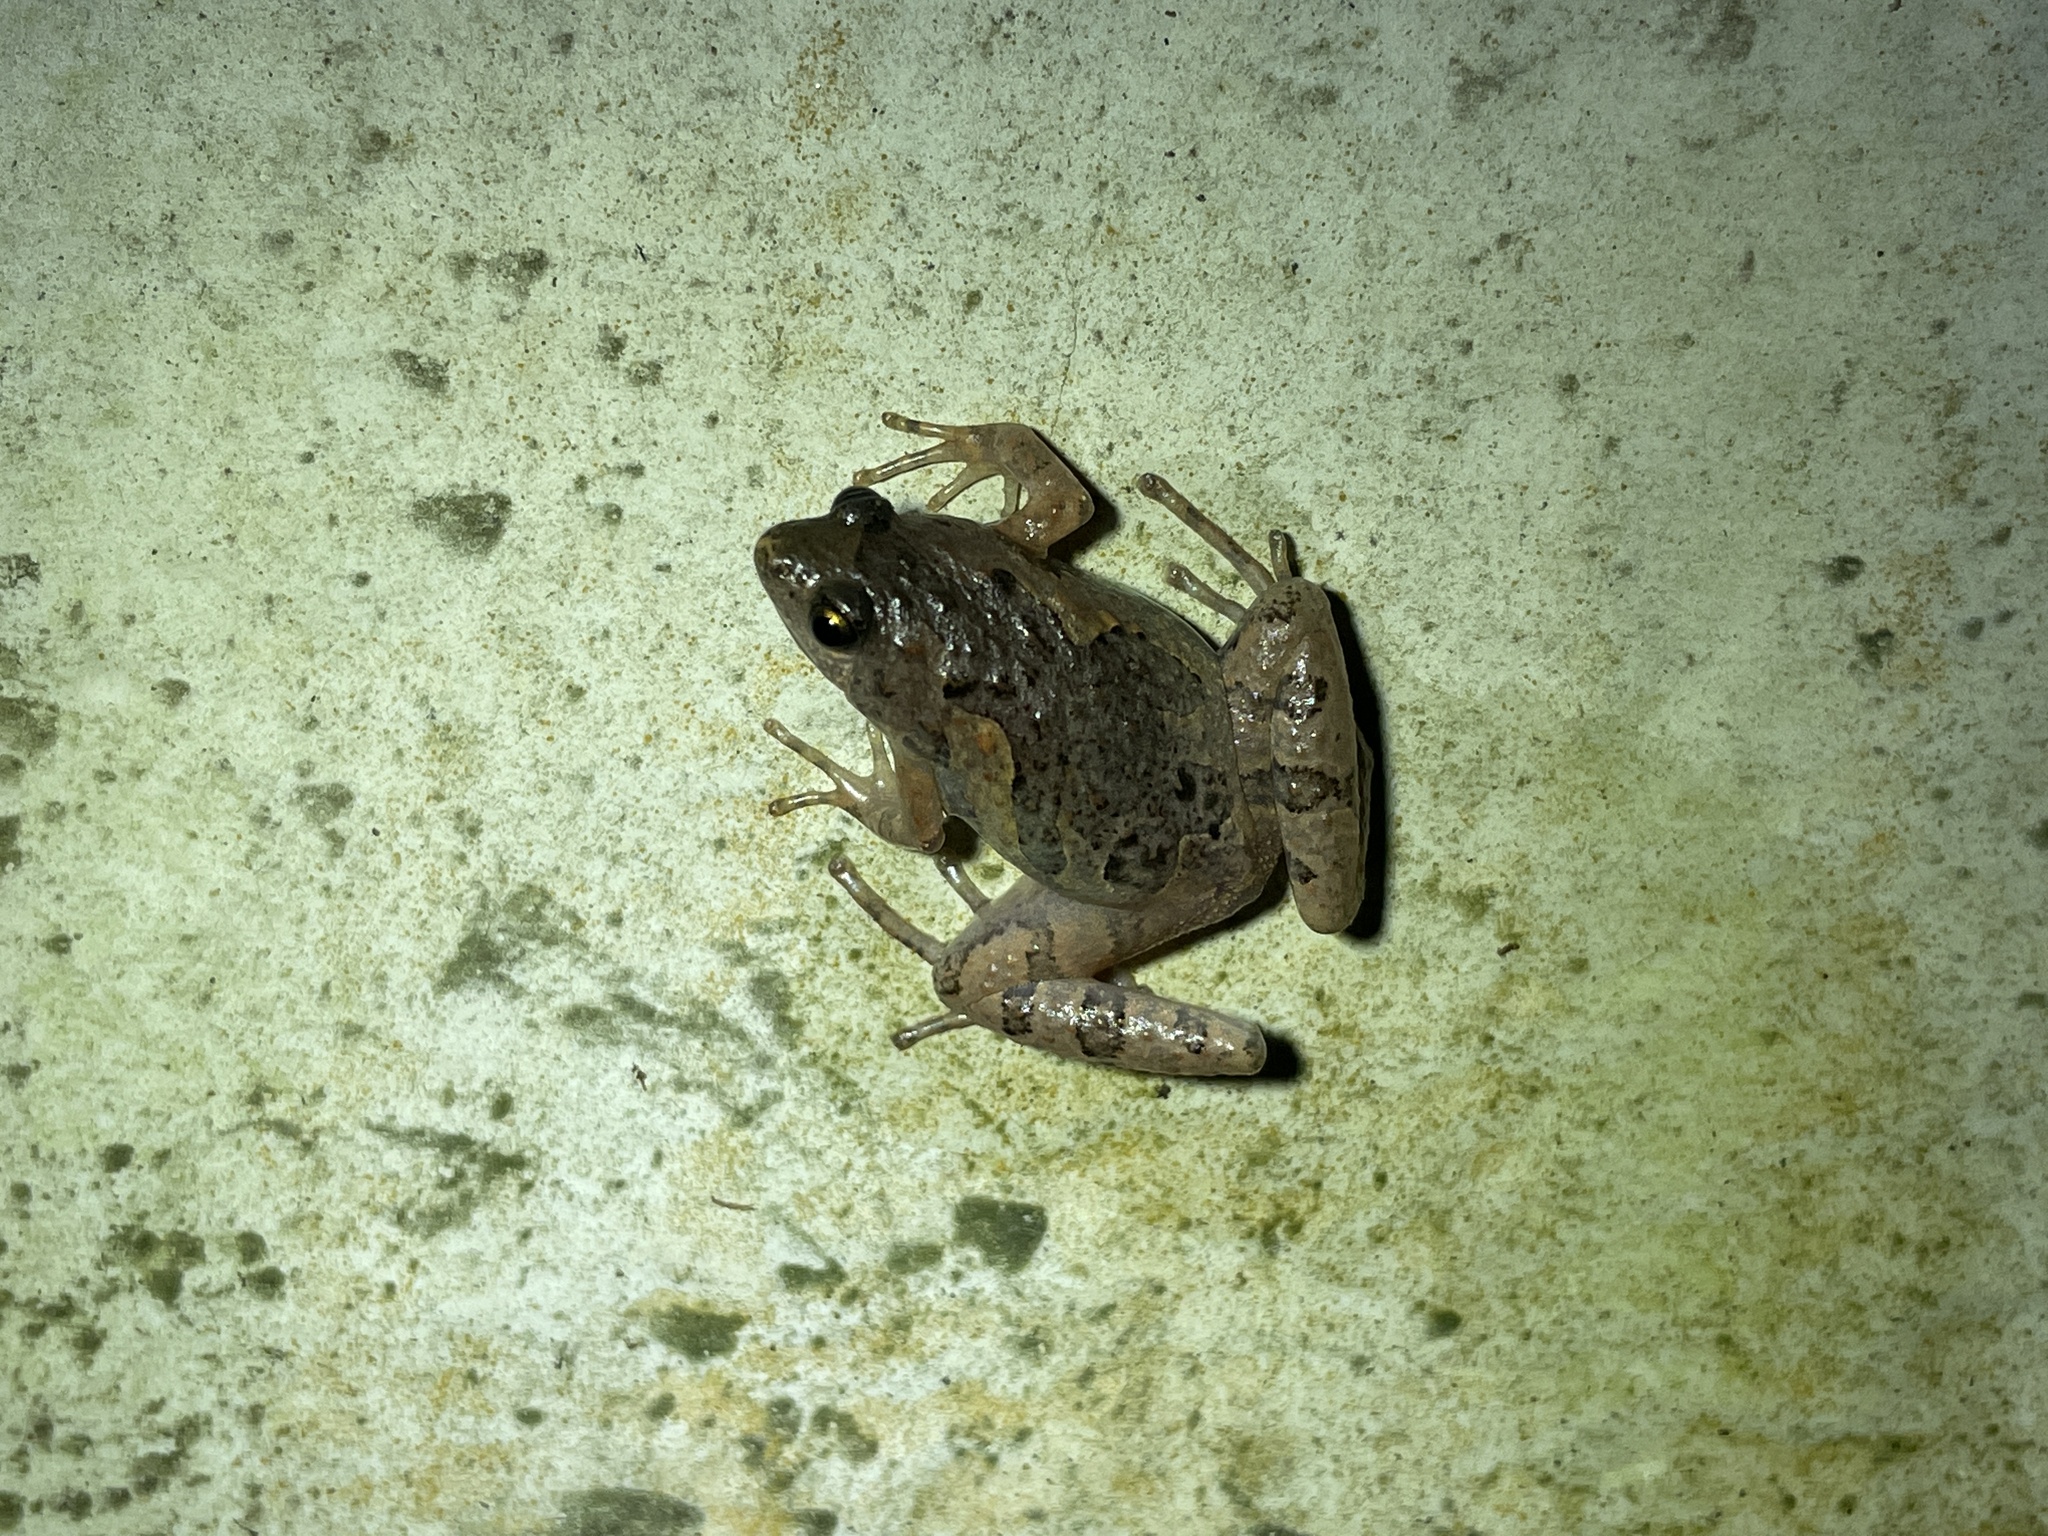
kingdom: Animalia
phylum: Chordata
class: Amphibia
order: Anura
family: Microhylidae
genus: Microhyla
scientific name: Microhyla butleri
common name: Butler’s rice frog,painted chorus frog,tubercled pygmy frog
